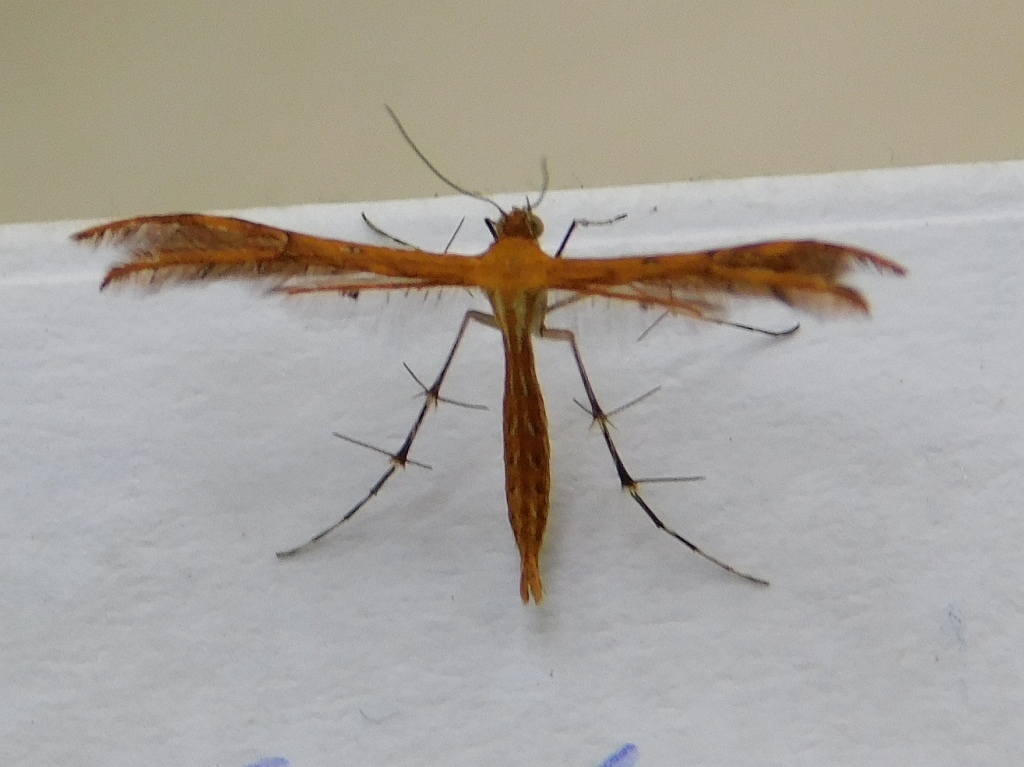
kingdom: Animalia
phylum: Arthropoda
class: Insecta
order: Lepidoptera
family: Pterophoridae
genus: Stenodacma
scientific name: Stenodacma wahlbergi
